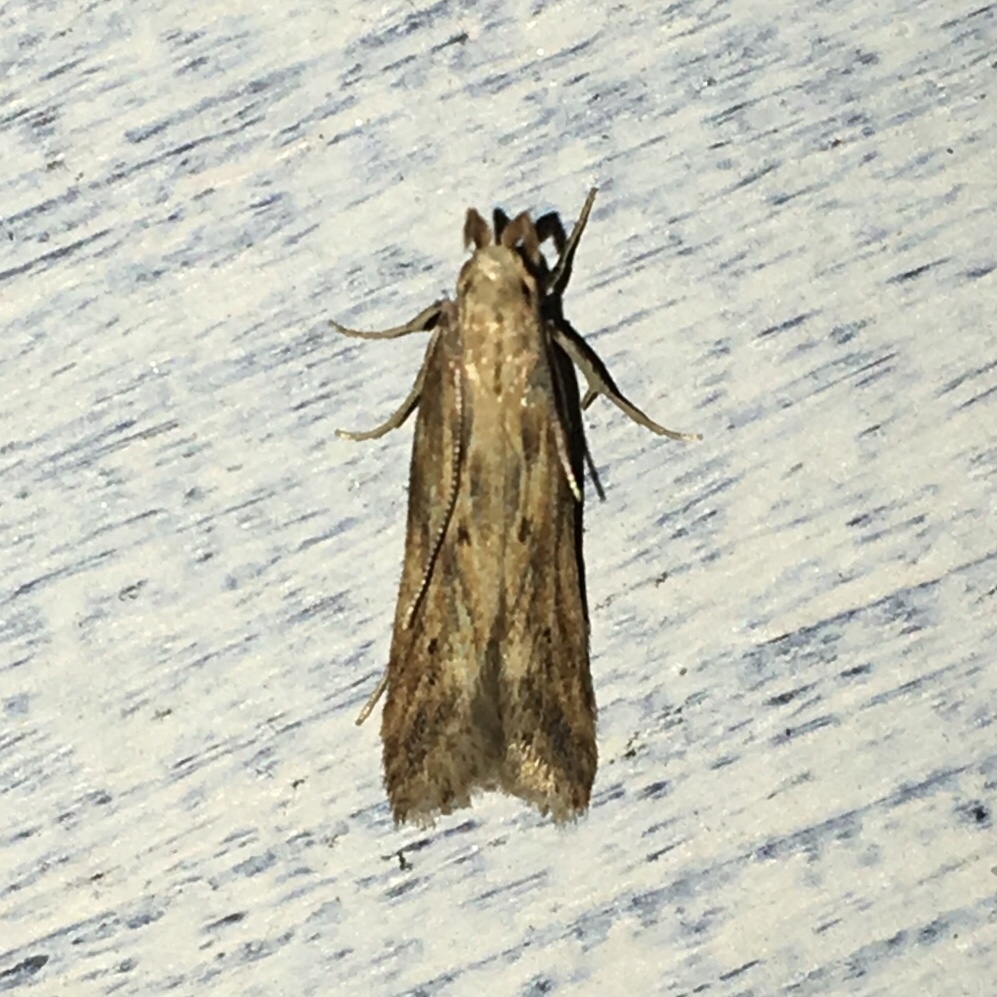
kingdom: Animalia
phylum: Arthropoda
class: Insecta
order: Lepidoptera
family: Gelechiidae
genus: Metzneria
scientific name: Metzneria lappella
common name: Burdock neb
